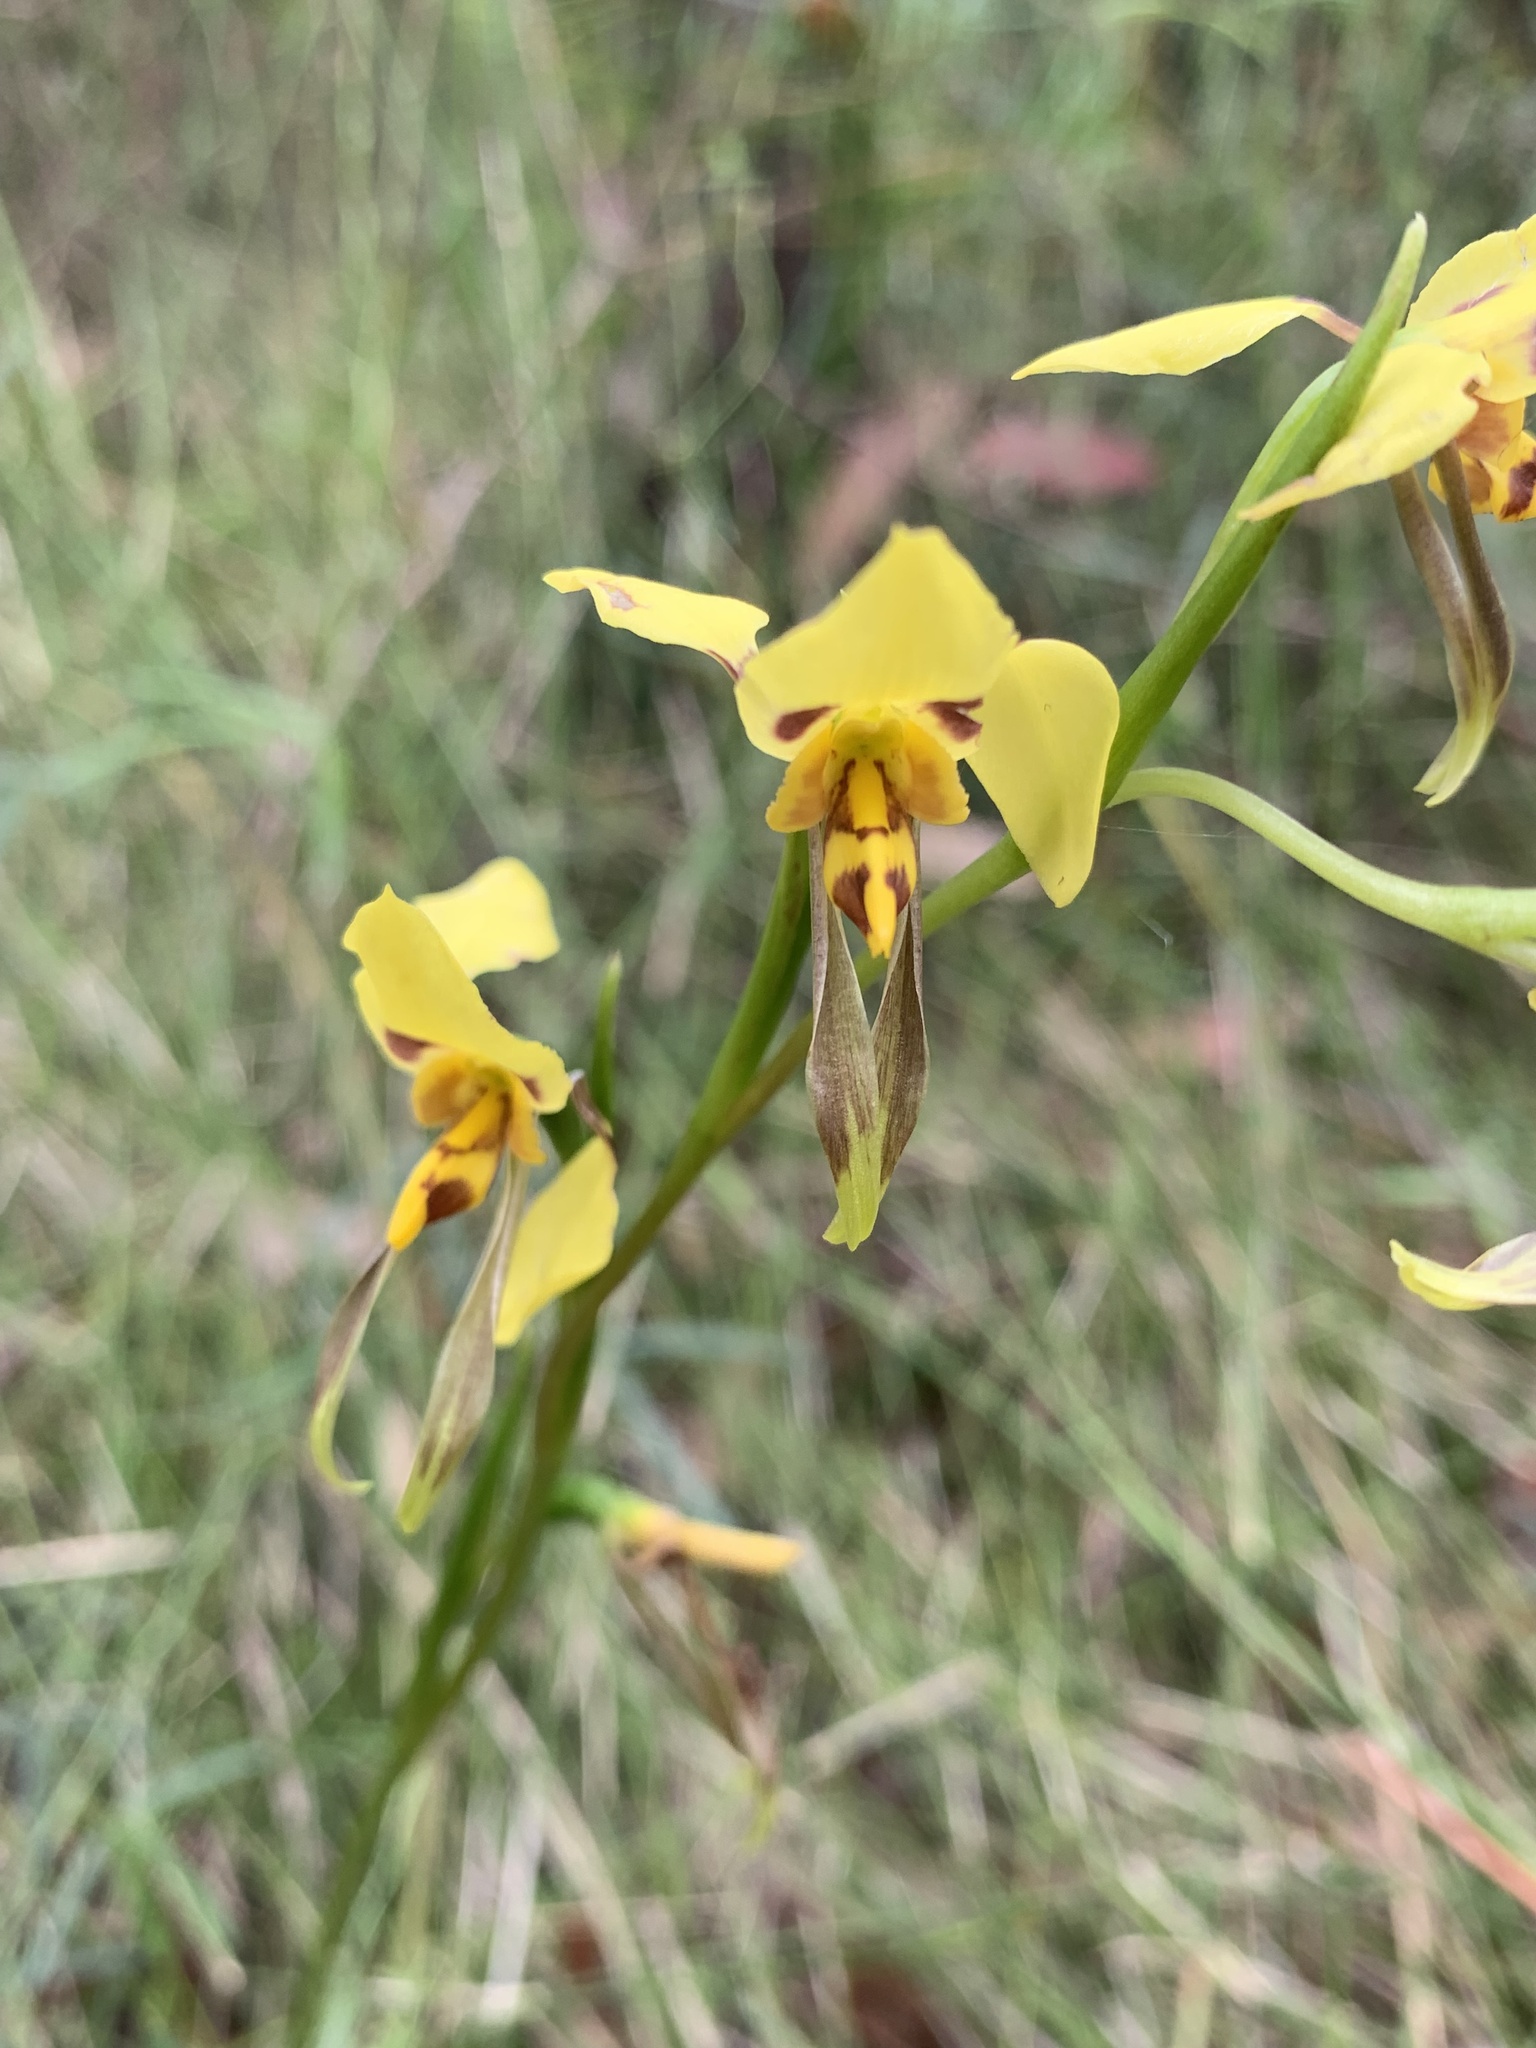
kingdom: Plantae
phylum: Tracheophyta
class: Liliopsida
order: Asparagales
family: Orchidaceae
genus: Diuris
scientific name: Diuris sulphurea
